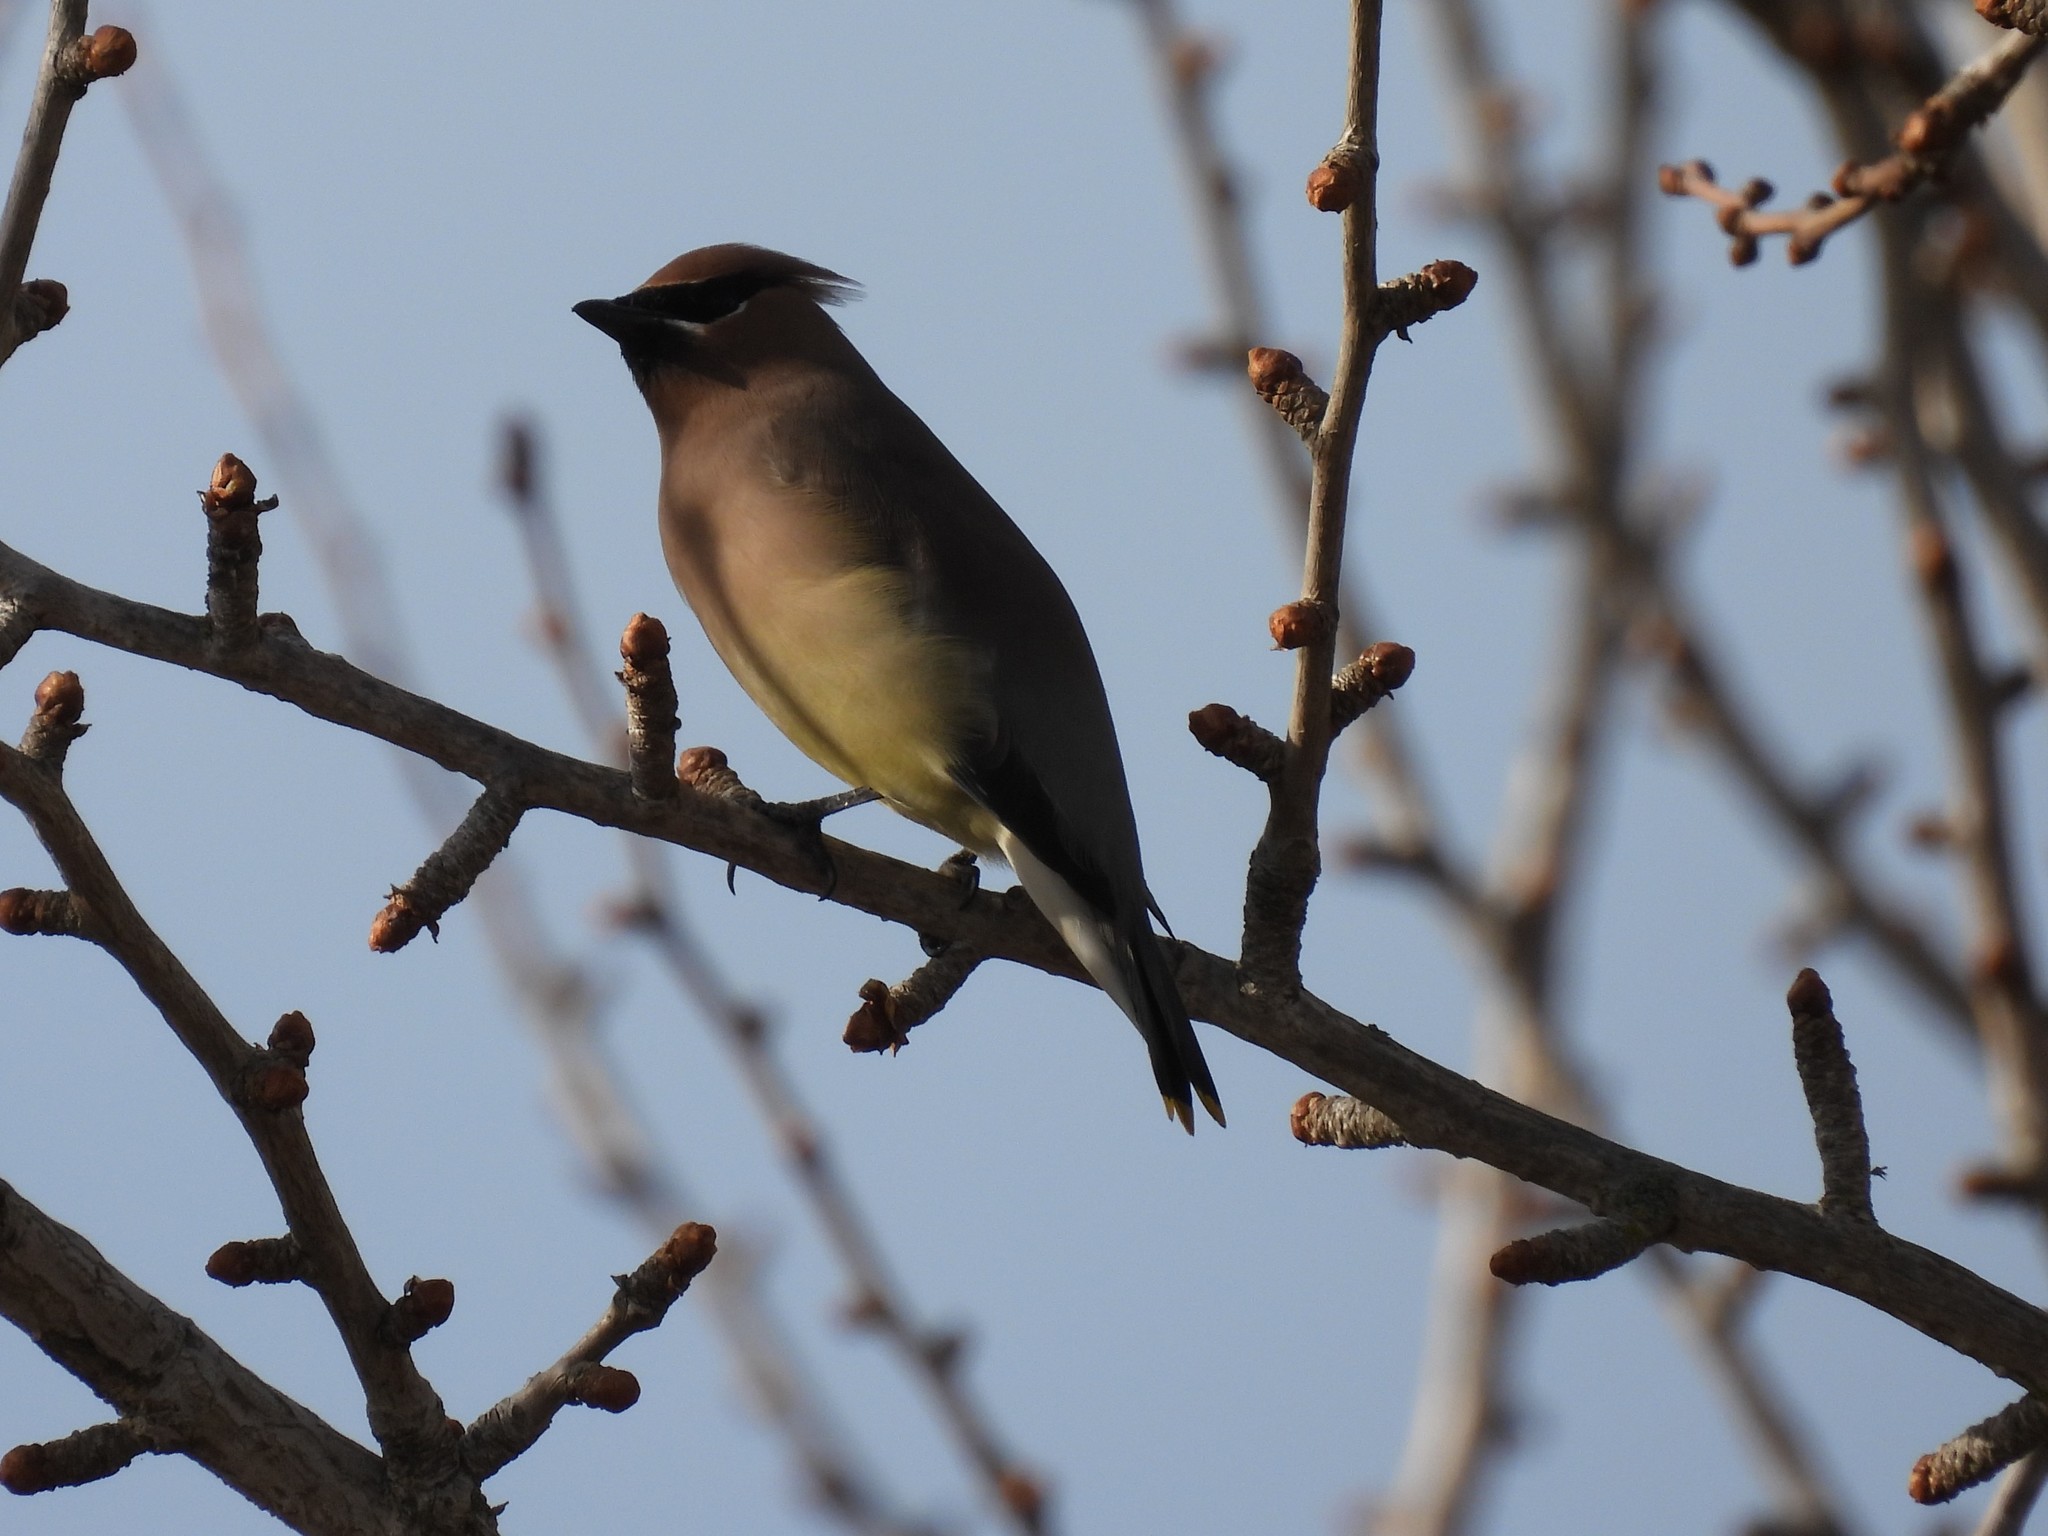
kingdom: Animalia
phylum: Chordata
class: Aves
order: Passeriformes
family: Bombycillidae
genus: Bombycilla
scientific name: Bombycilla cedrorum
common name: Cedar waxwing
